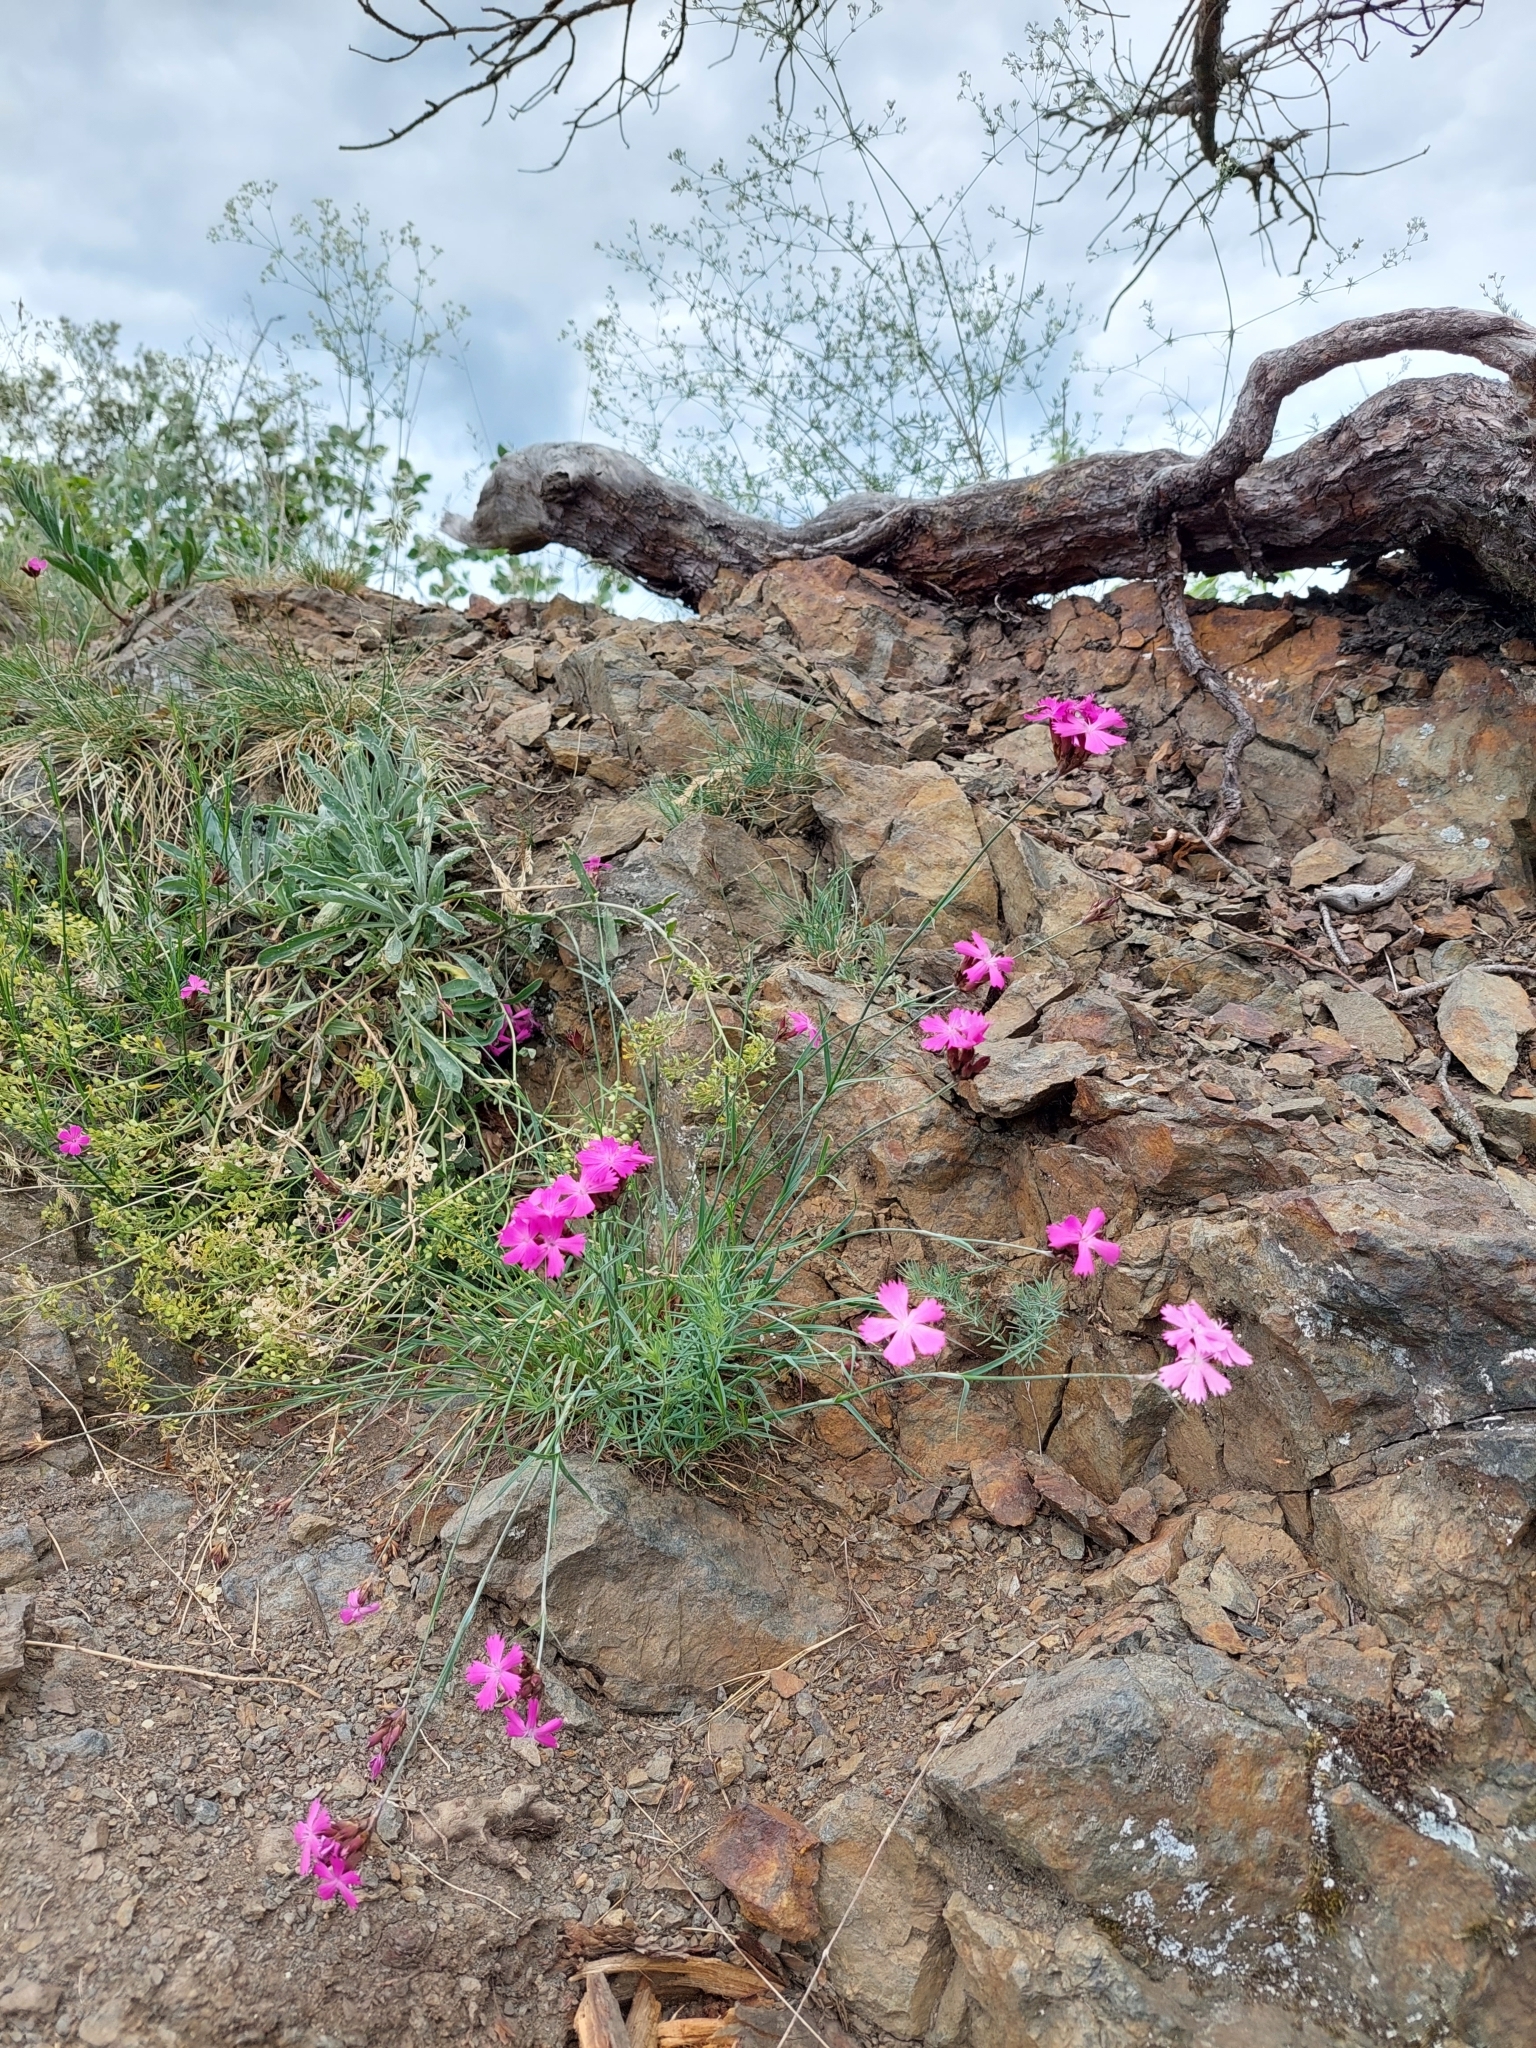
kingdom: Plantae
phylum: Tracheophyta
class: Magnoliopsida
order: Caryophyllales
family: Caryophyllaceae
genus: Dianthus
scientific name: Dianthus carthusianorum
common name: Carthusian pink
